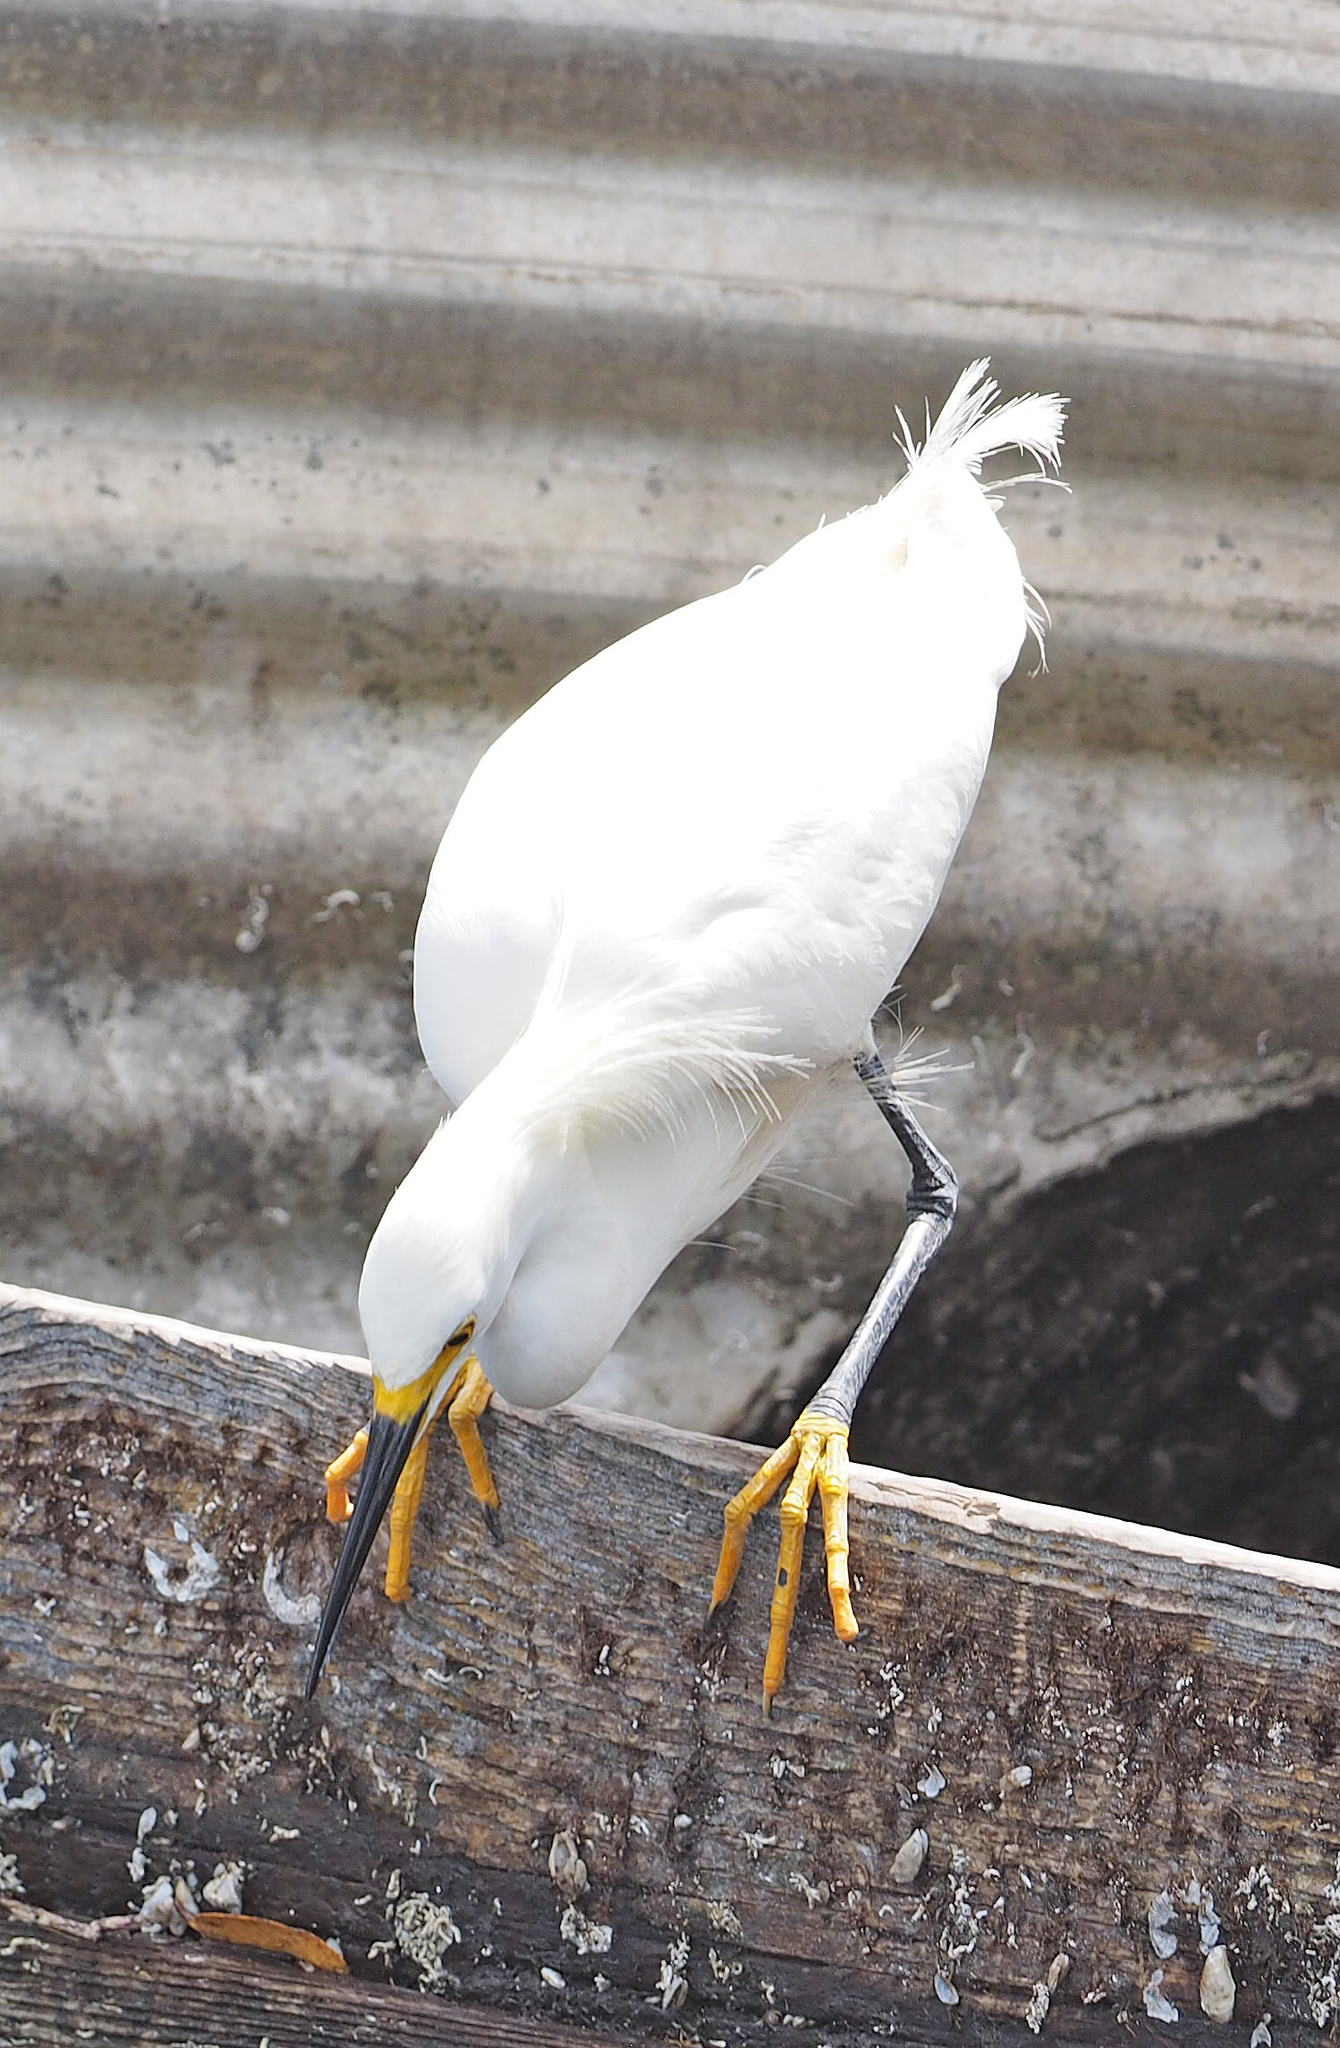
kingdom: Animalia
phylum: Chordata
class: Aves
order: Pelecaniformes
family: Ardeidae
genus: Egretta
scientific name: Egretta thula
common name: Snowy egret
